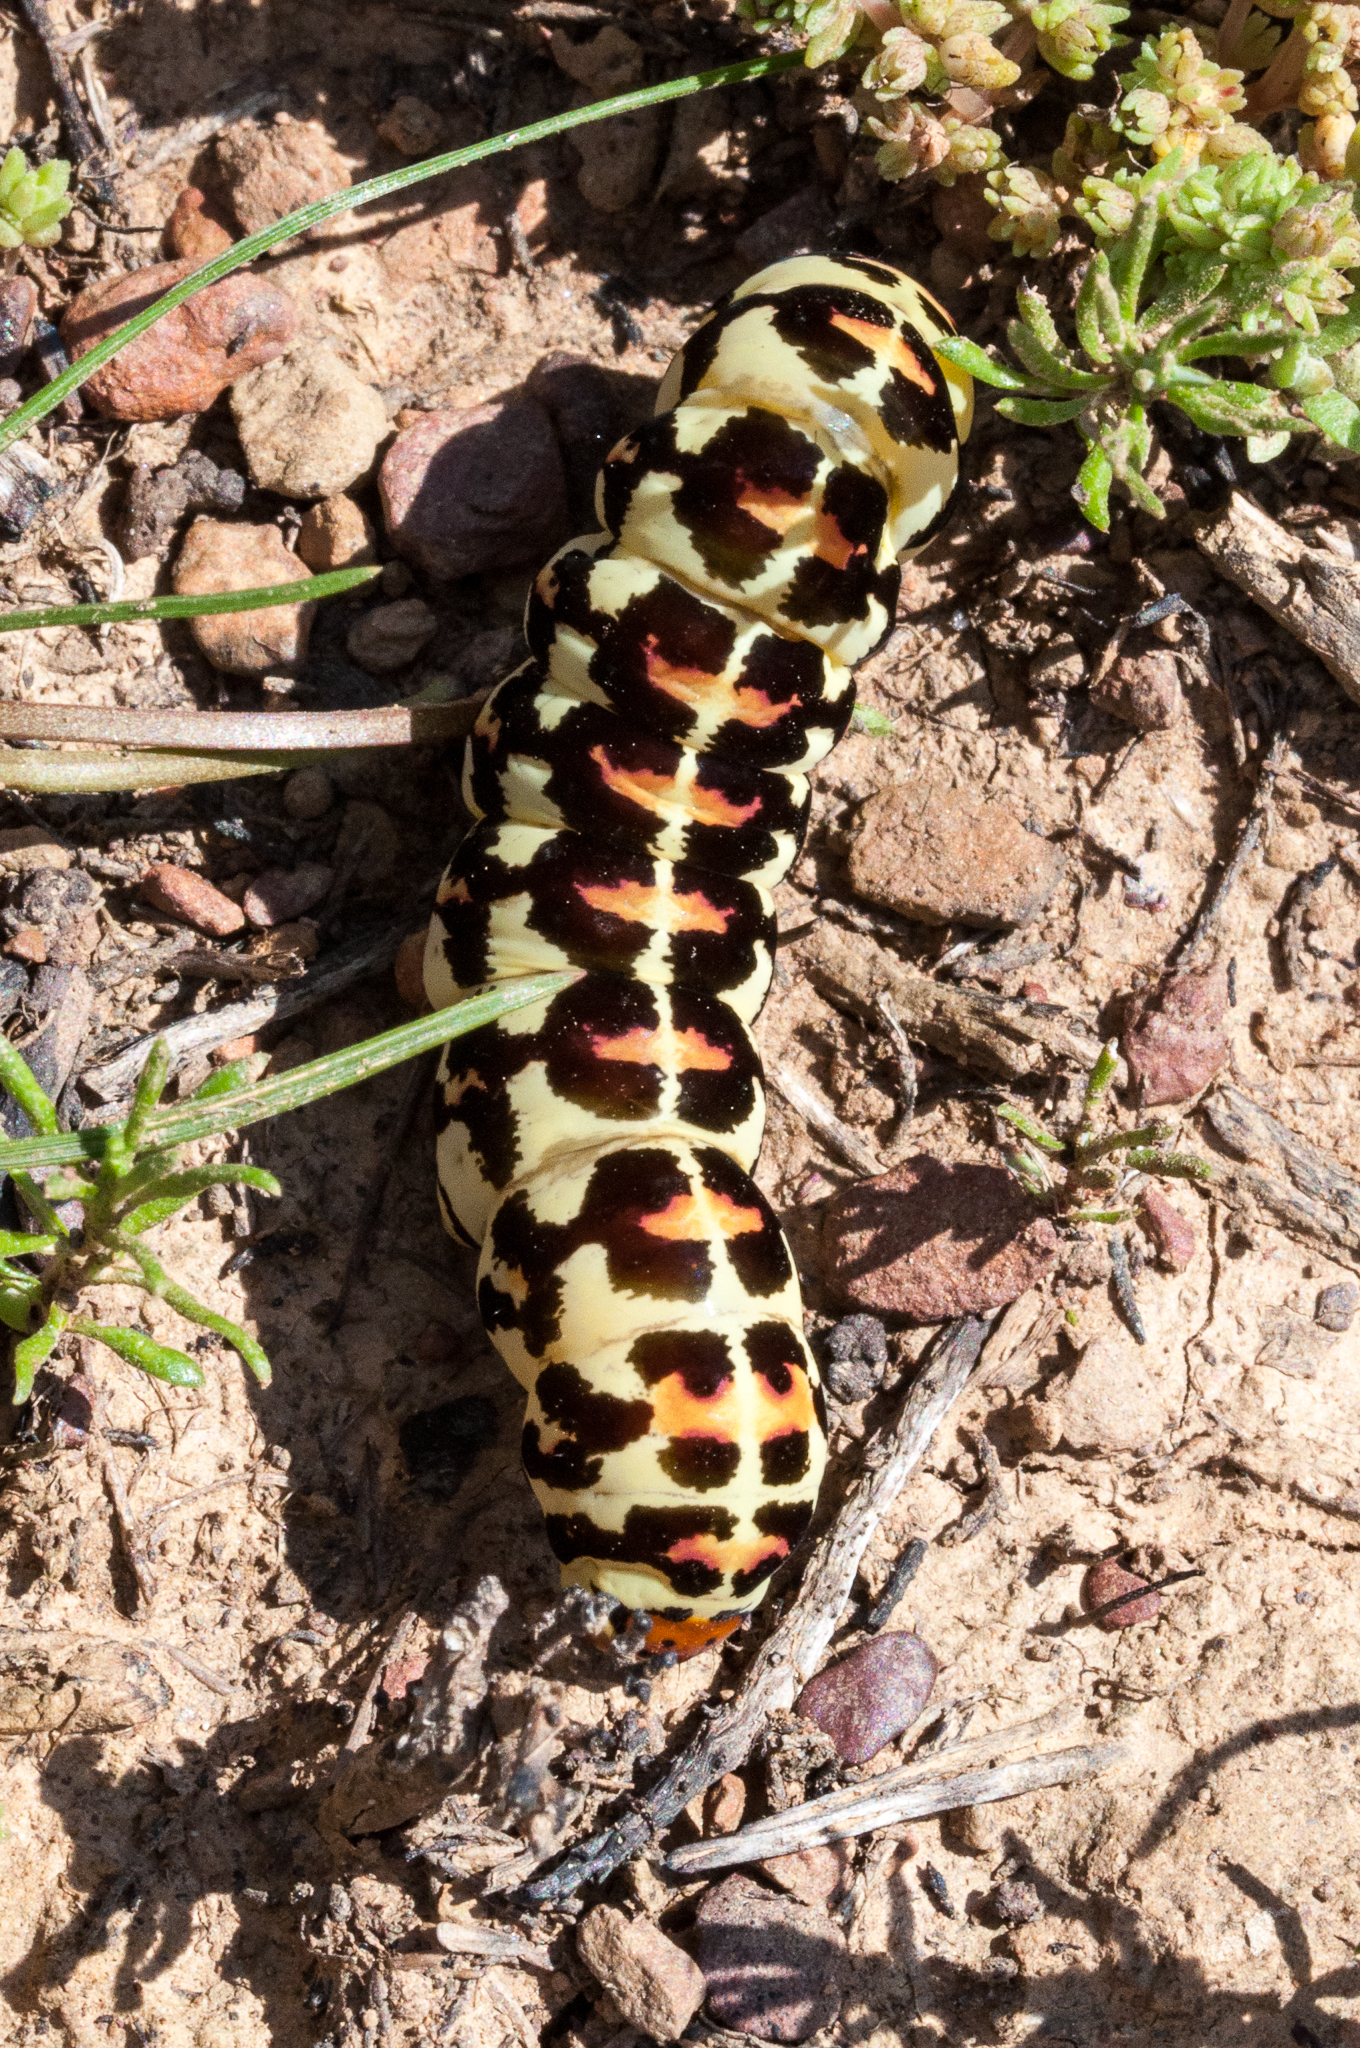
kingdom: Animalia
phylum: Arthropoda
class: Insecta
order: Lepidoptera
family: Noctuidae
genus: Diaphone
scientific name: Diaphone eumela
